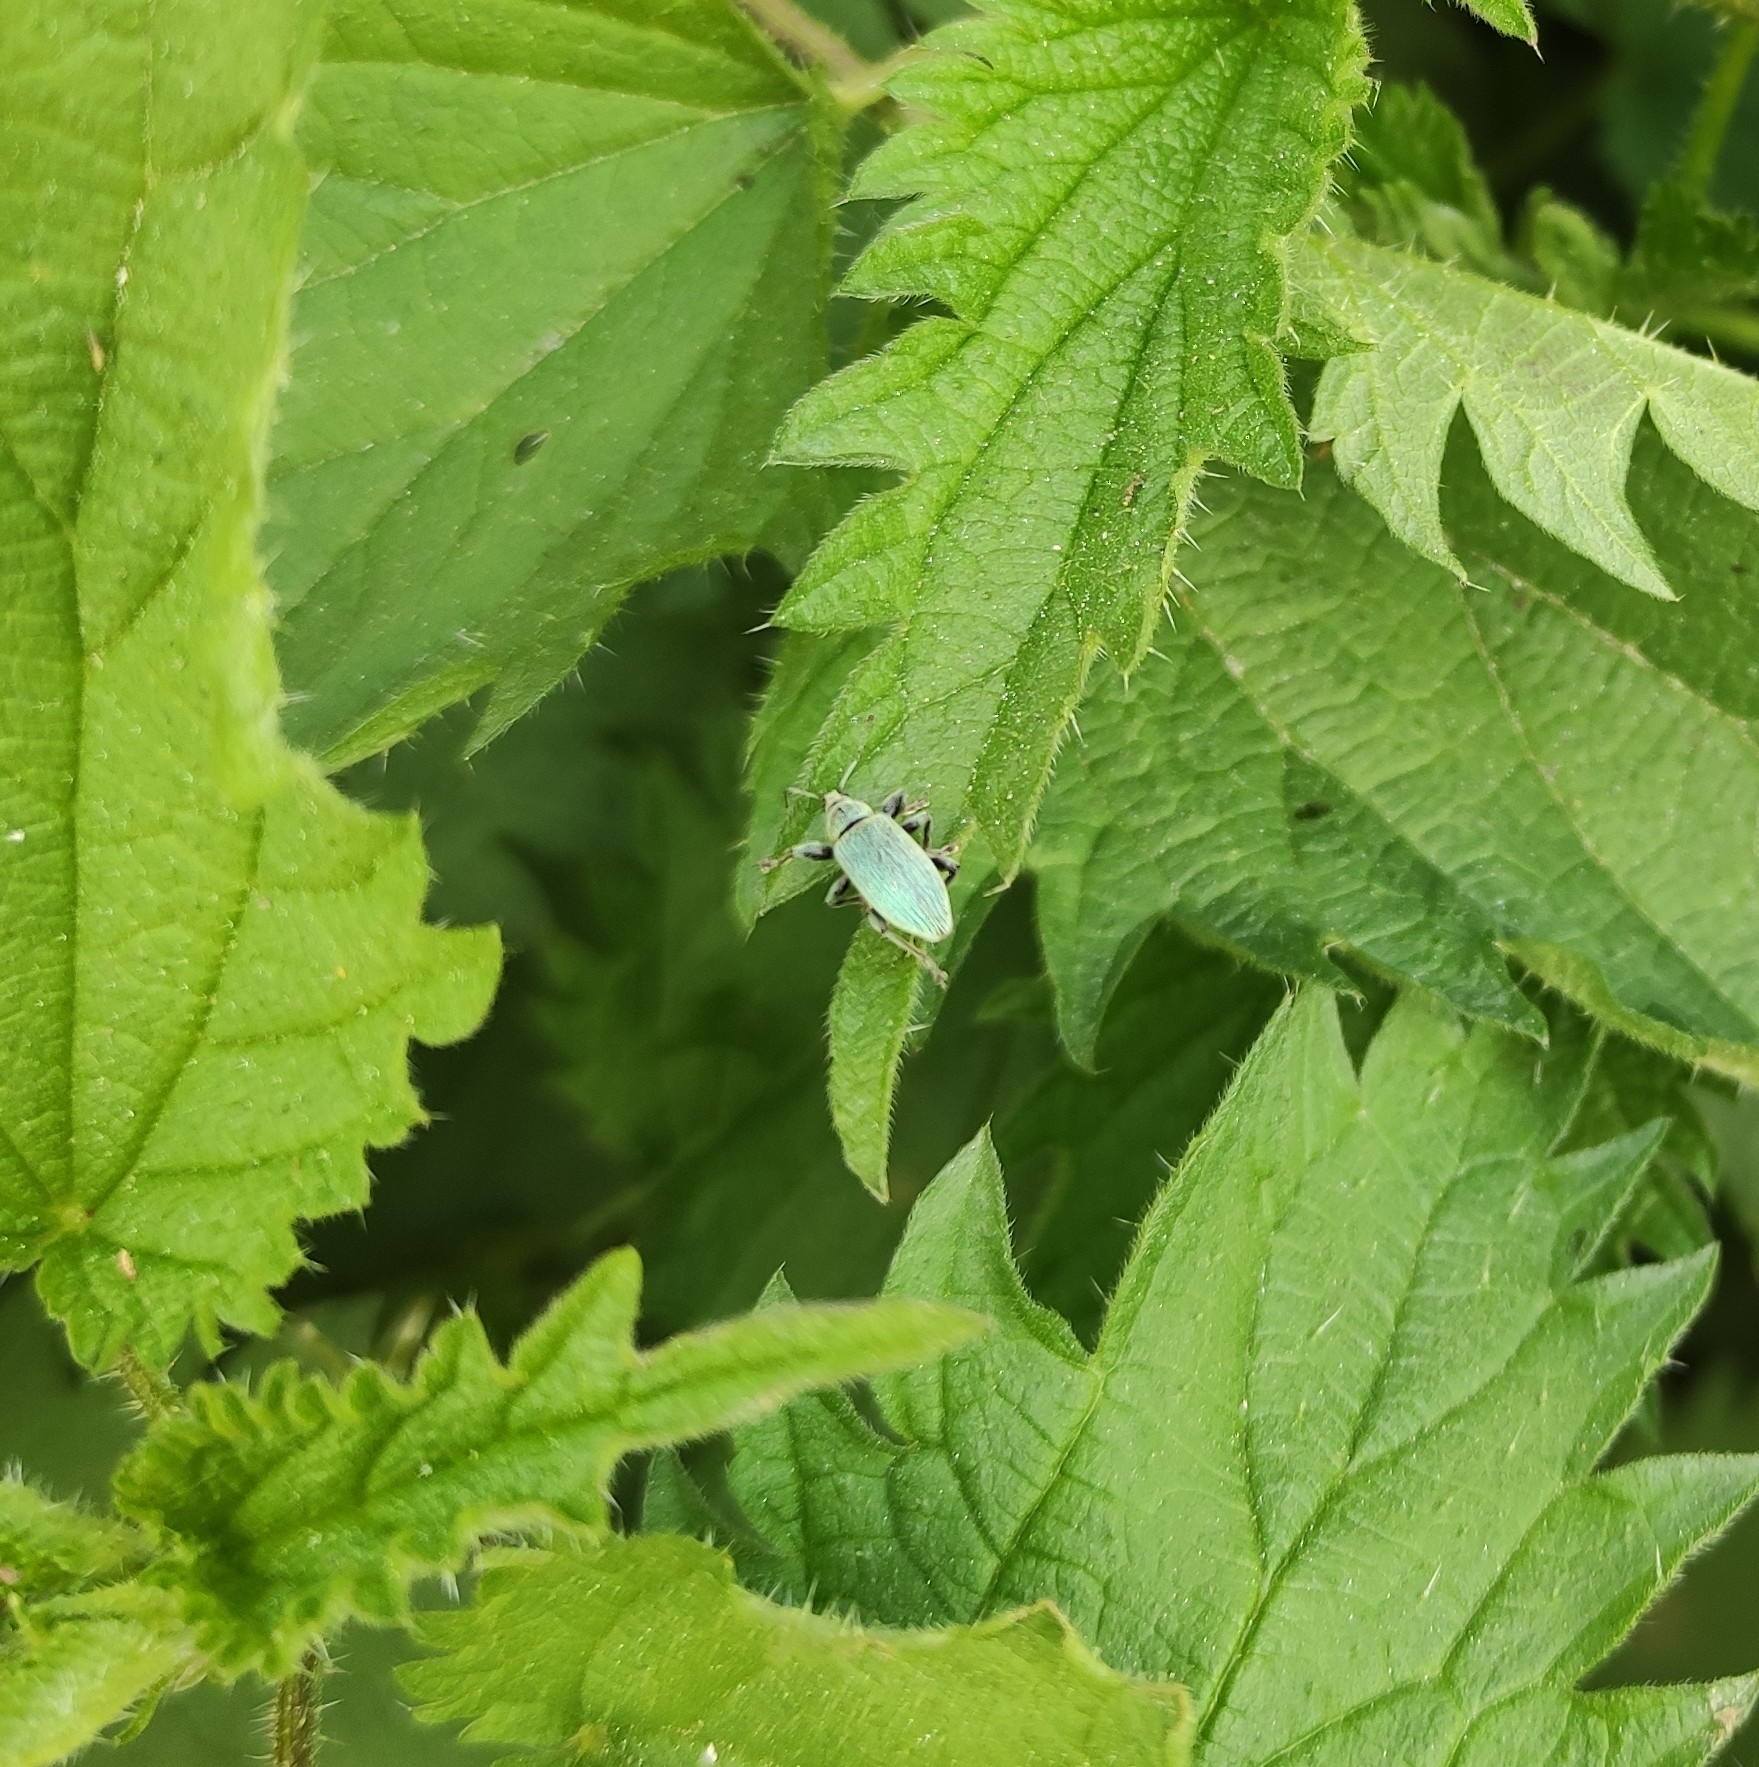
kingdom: Animalia
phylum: Arthropoda
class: Insecta
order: Coleoptera
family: Curculionidae
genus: Phyllobius
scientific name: Phyllobius pomaceus
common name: Green nettle weevil
